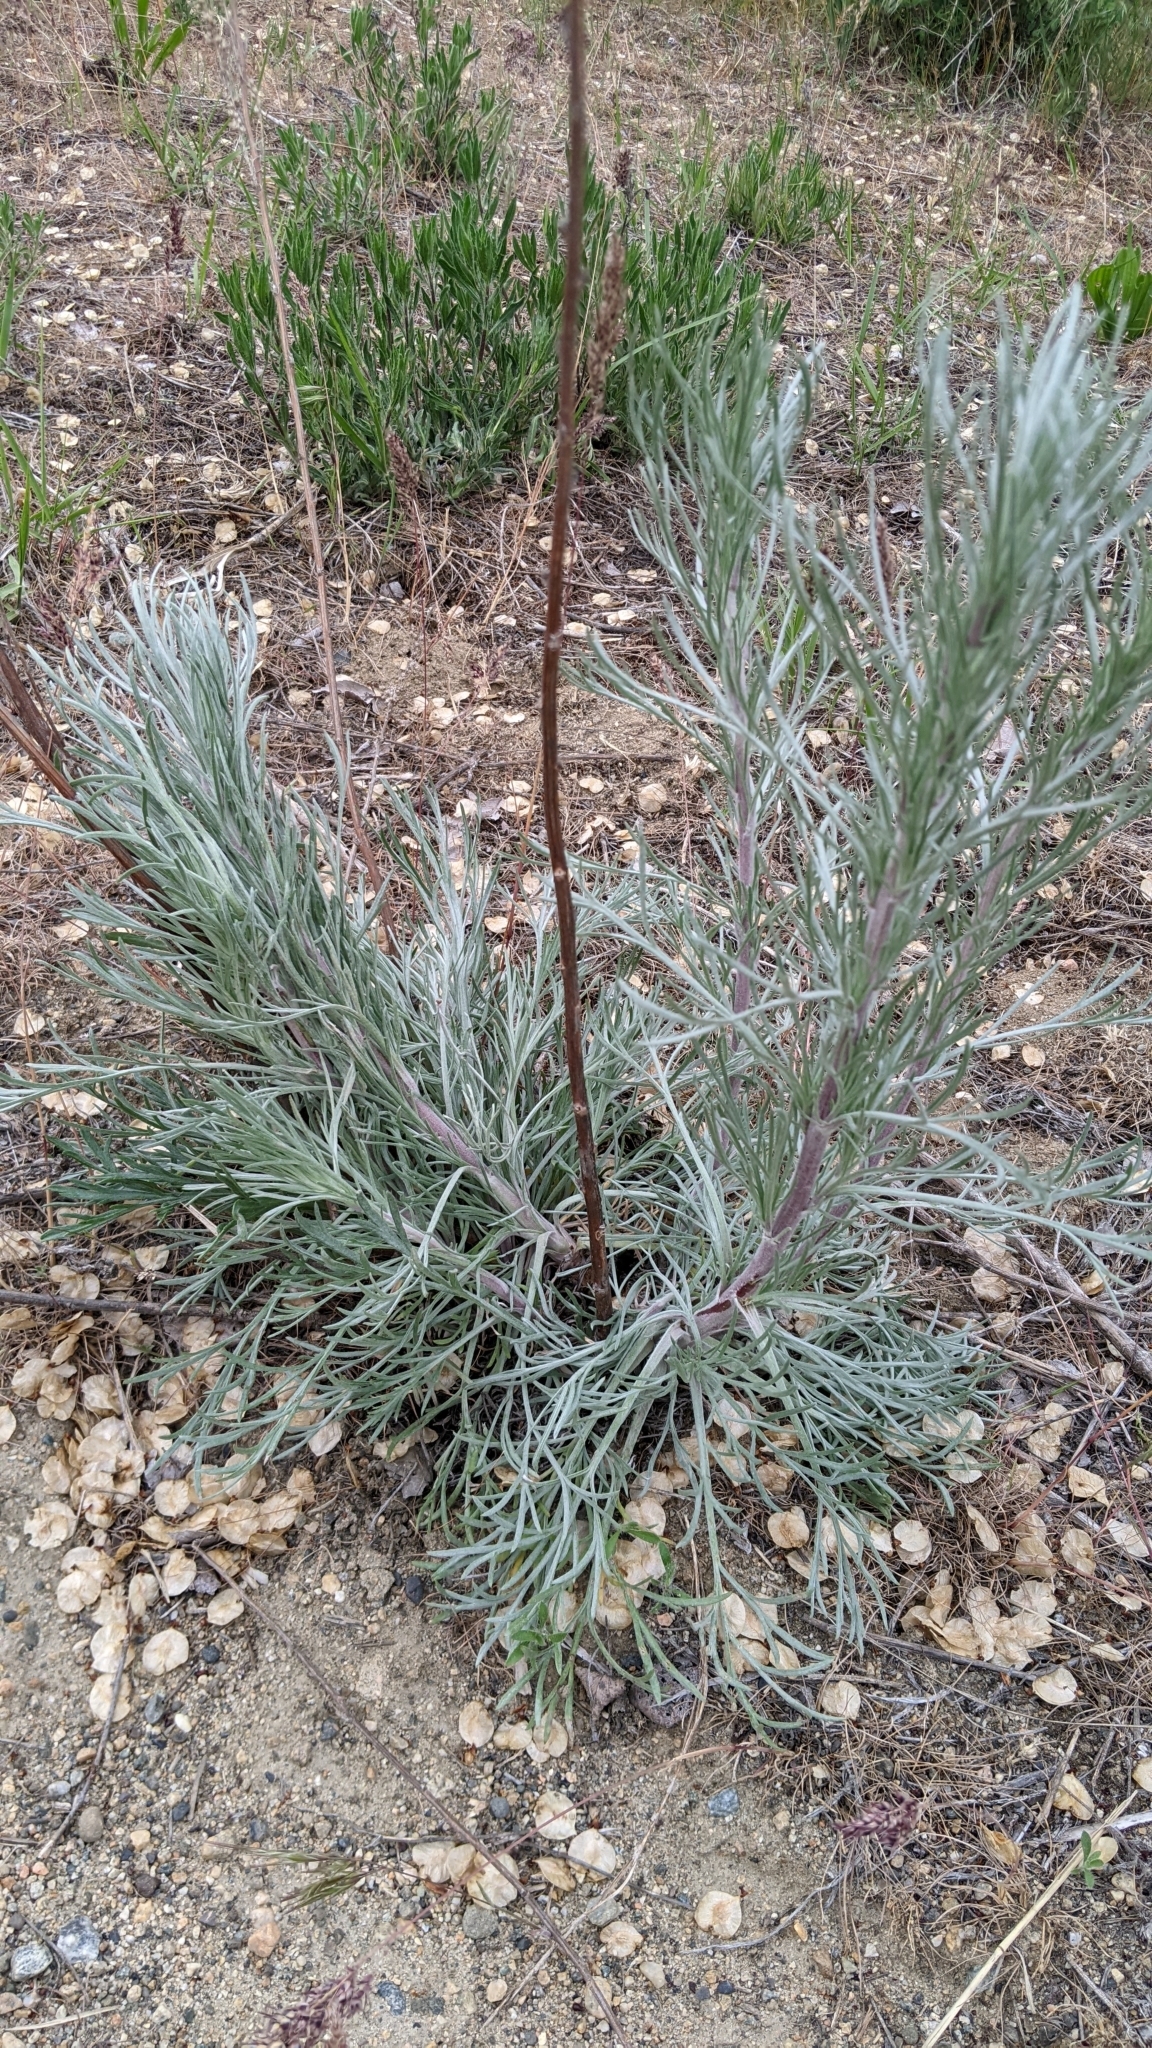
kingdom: Plantae
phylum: Tracheophyta
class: Magnoliopsida
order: Asterales
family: Asteraceae
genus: Artemisia
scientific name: Artemisia campestris
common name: Field wormwood
